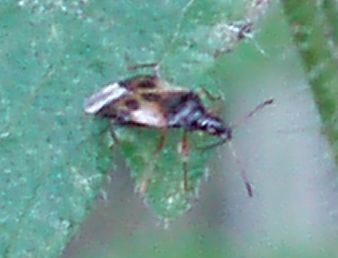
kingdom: Animalia
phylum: Arthropoda
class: Insecta
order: Hemiptera
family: Anthocoridae
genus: Anthocoris
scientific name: Anthocoris nemorum
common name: Minute pirate bug
